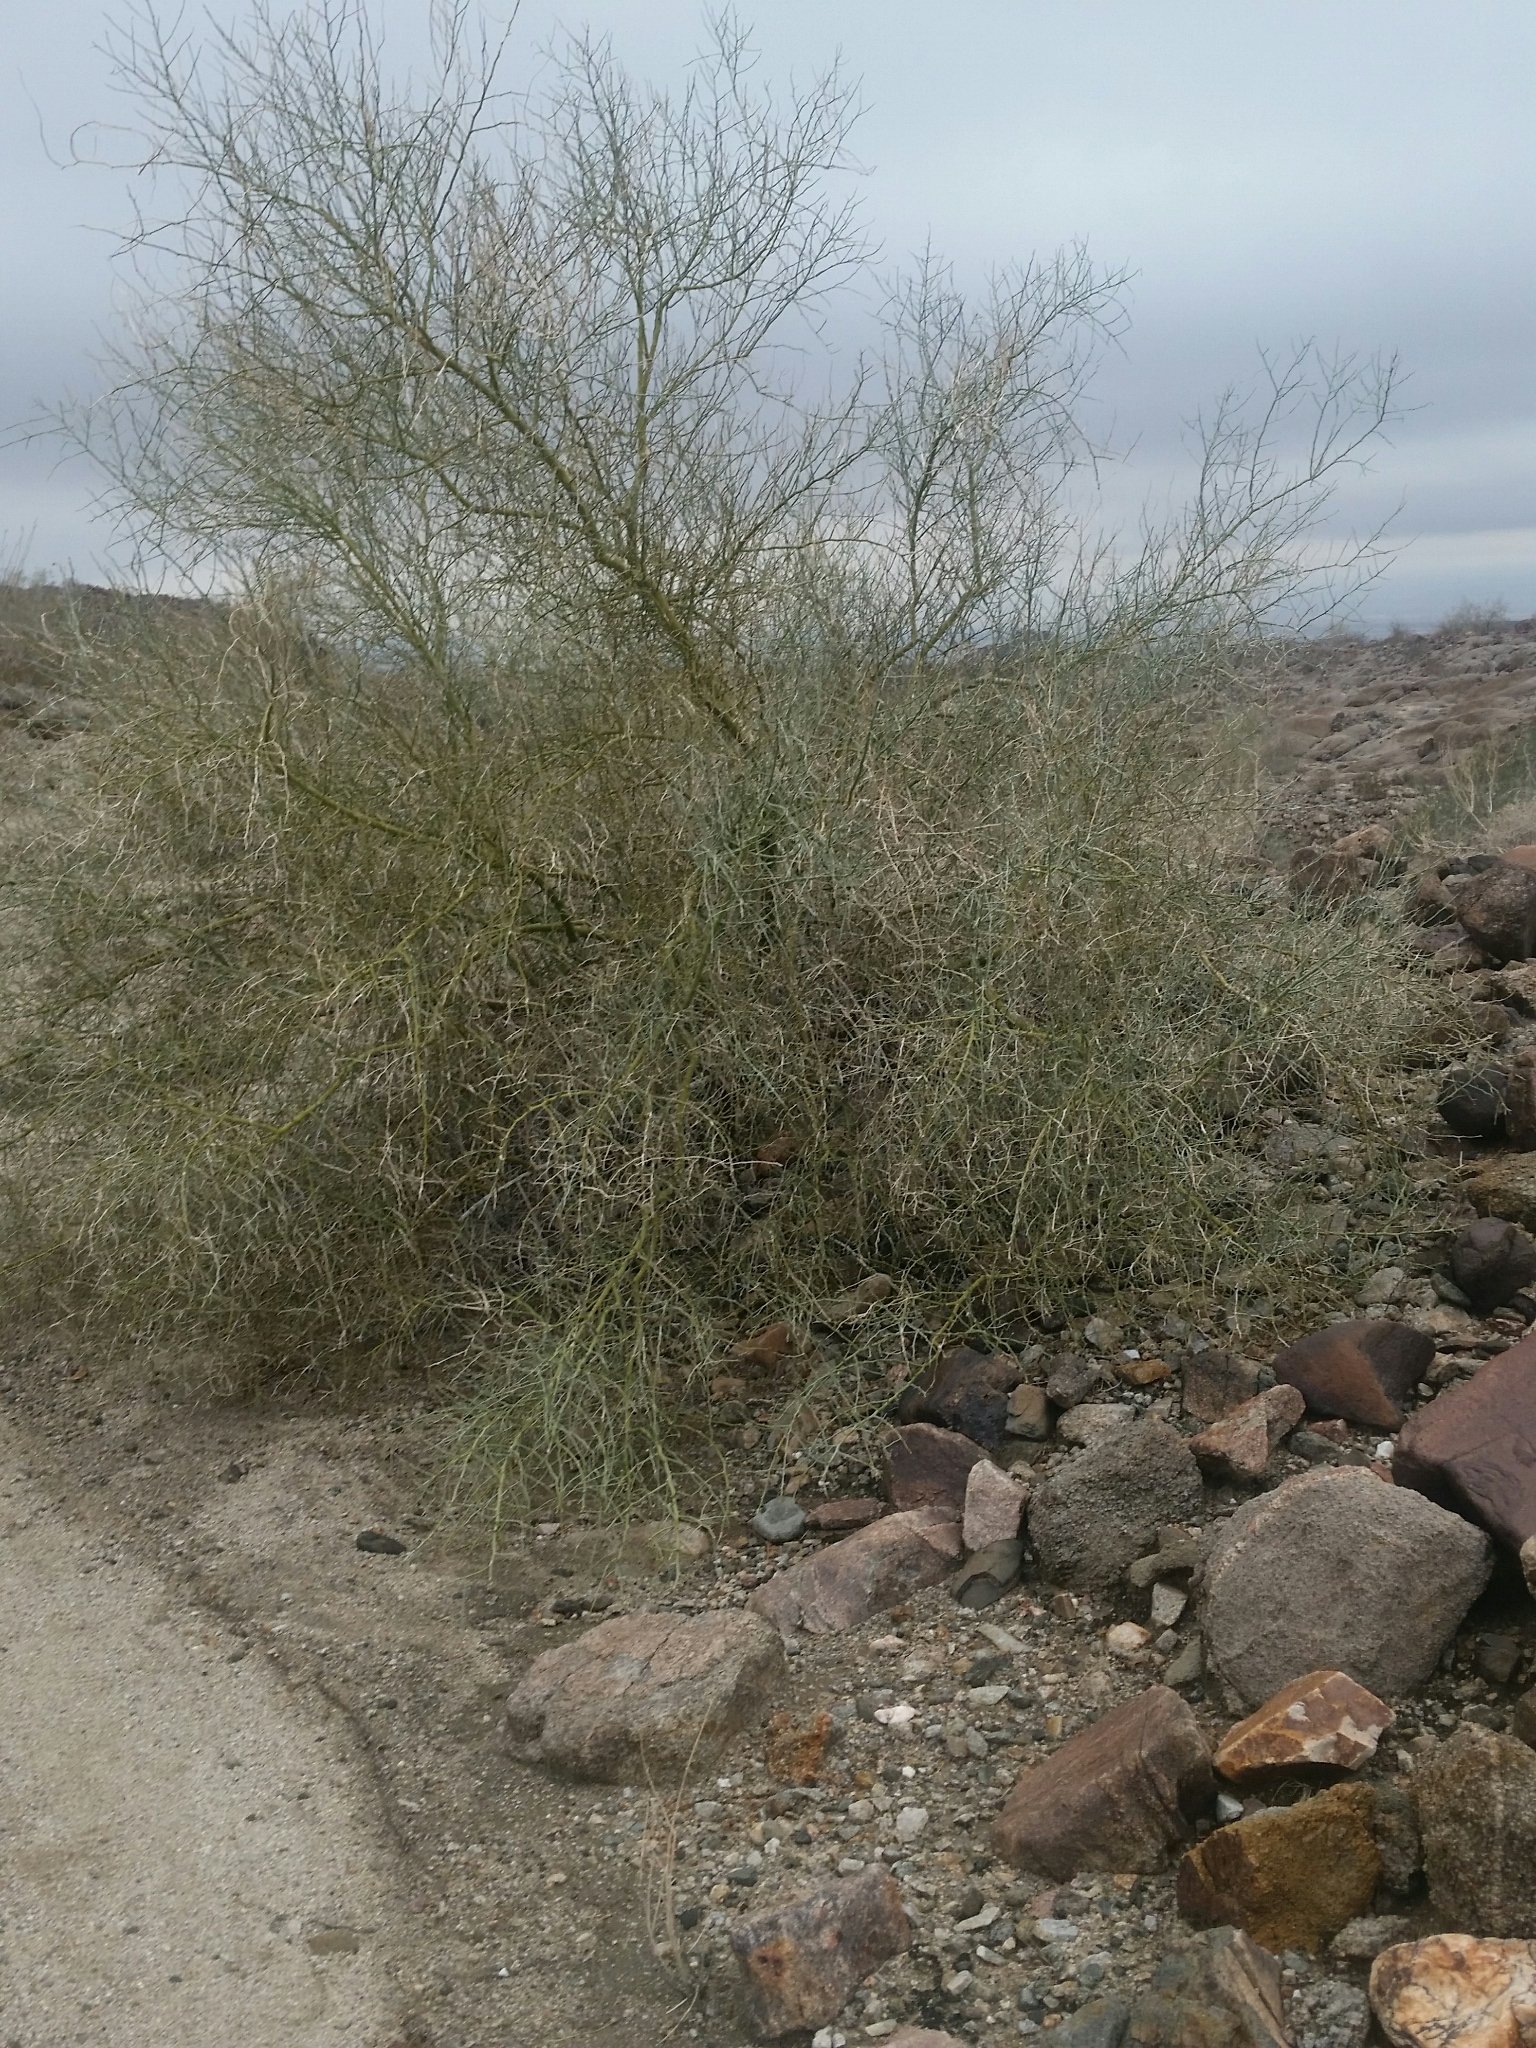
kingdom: Plantae
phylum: Tracheophyta
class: Magnoliopsida
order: Fabales
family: Fabaceae
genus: Parkinsonia
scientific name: Parkinsonia florida
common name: Blue paloverde
